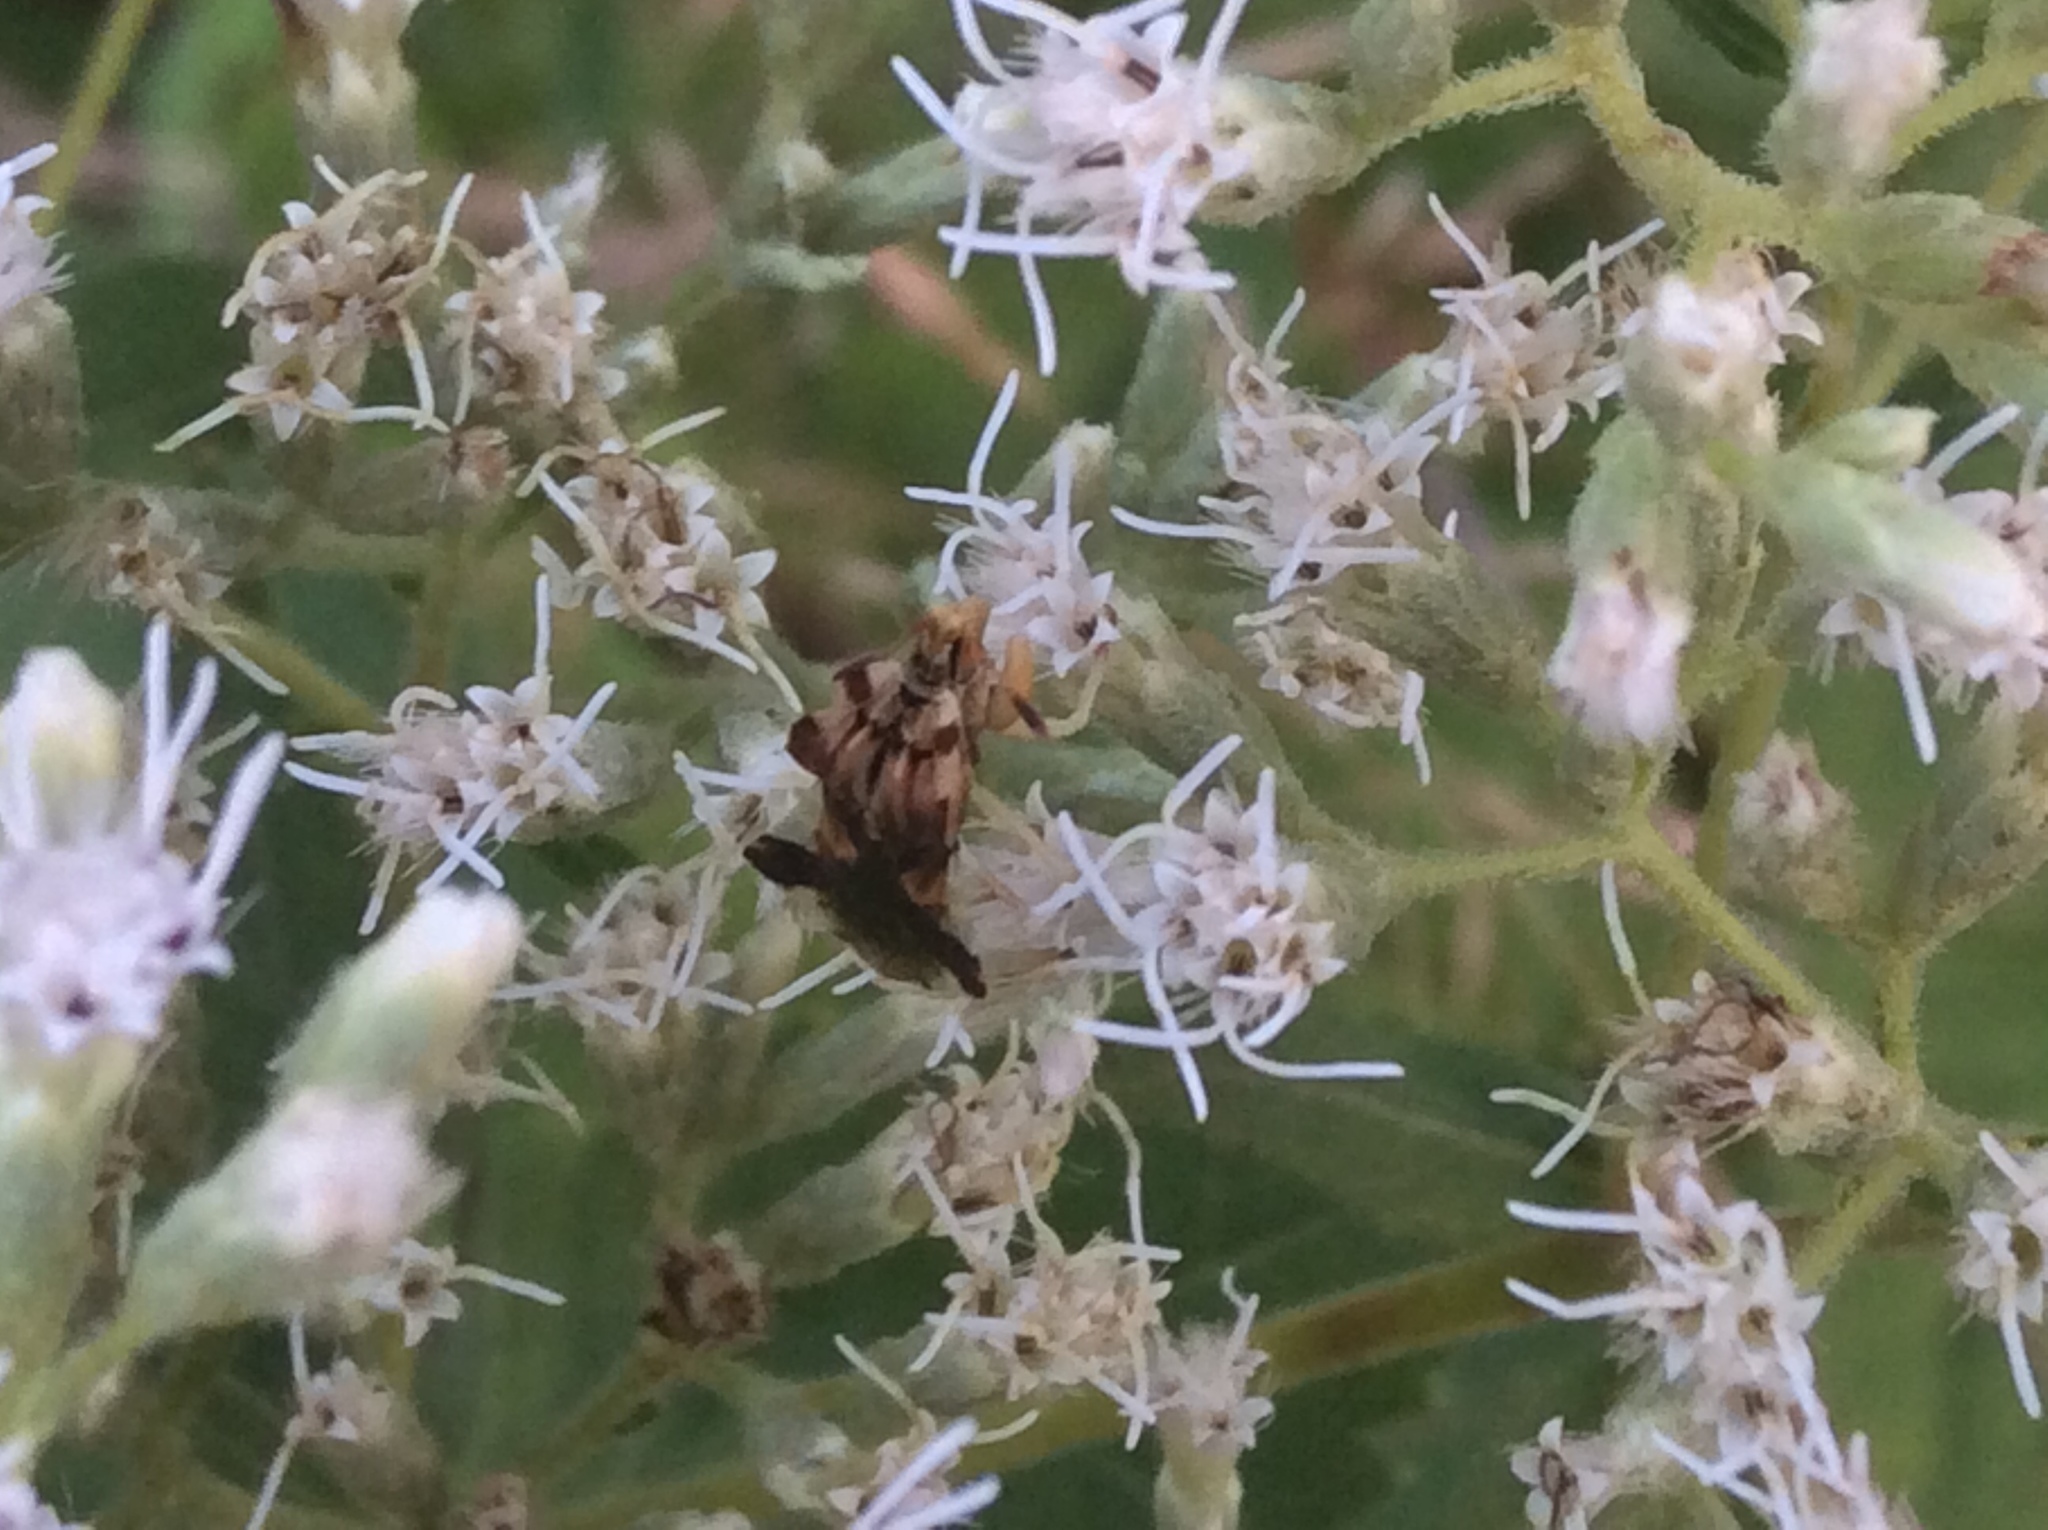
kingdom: Animalia
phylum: Arthropoda
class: Insecta
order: Hemiptera
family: Reduviidae
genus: Phymata
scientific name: Phymata fasciata
